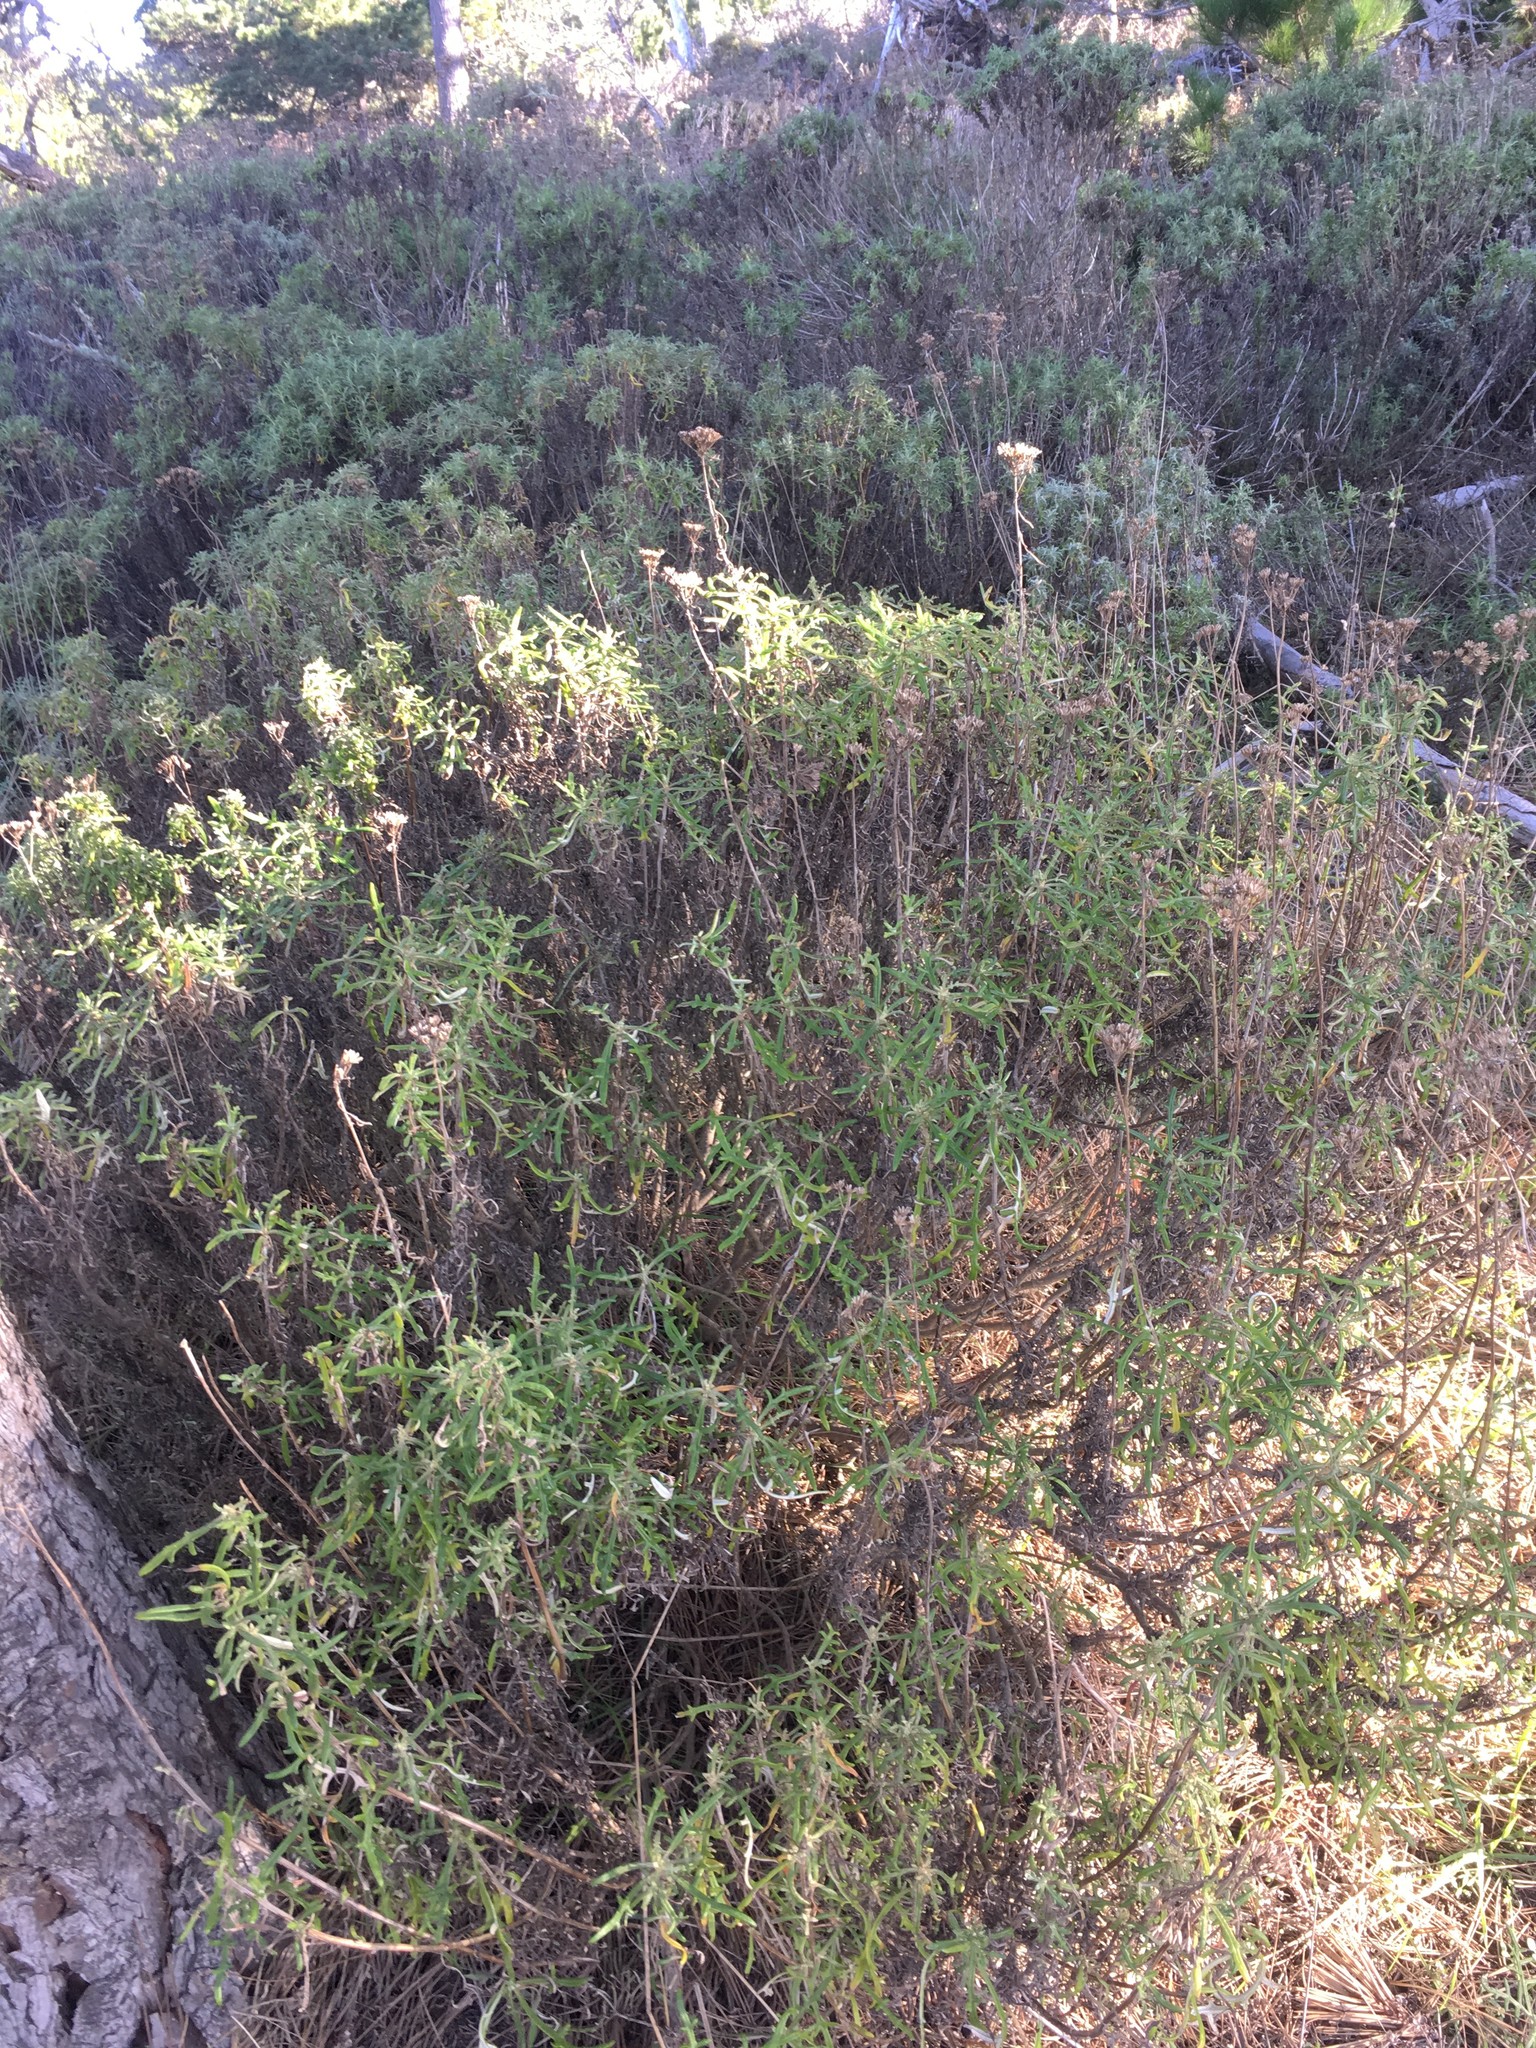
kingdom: Plantae
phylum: Tracheophyta
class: Magnoliopsida
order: Asterales
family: Asteraceae
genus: Eriophyllum
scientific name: Eriophyllum staechadifolium
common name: Lizardtail
